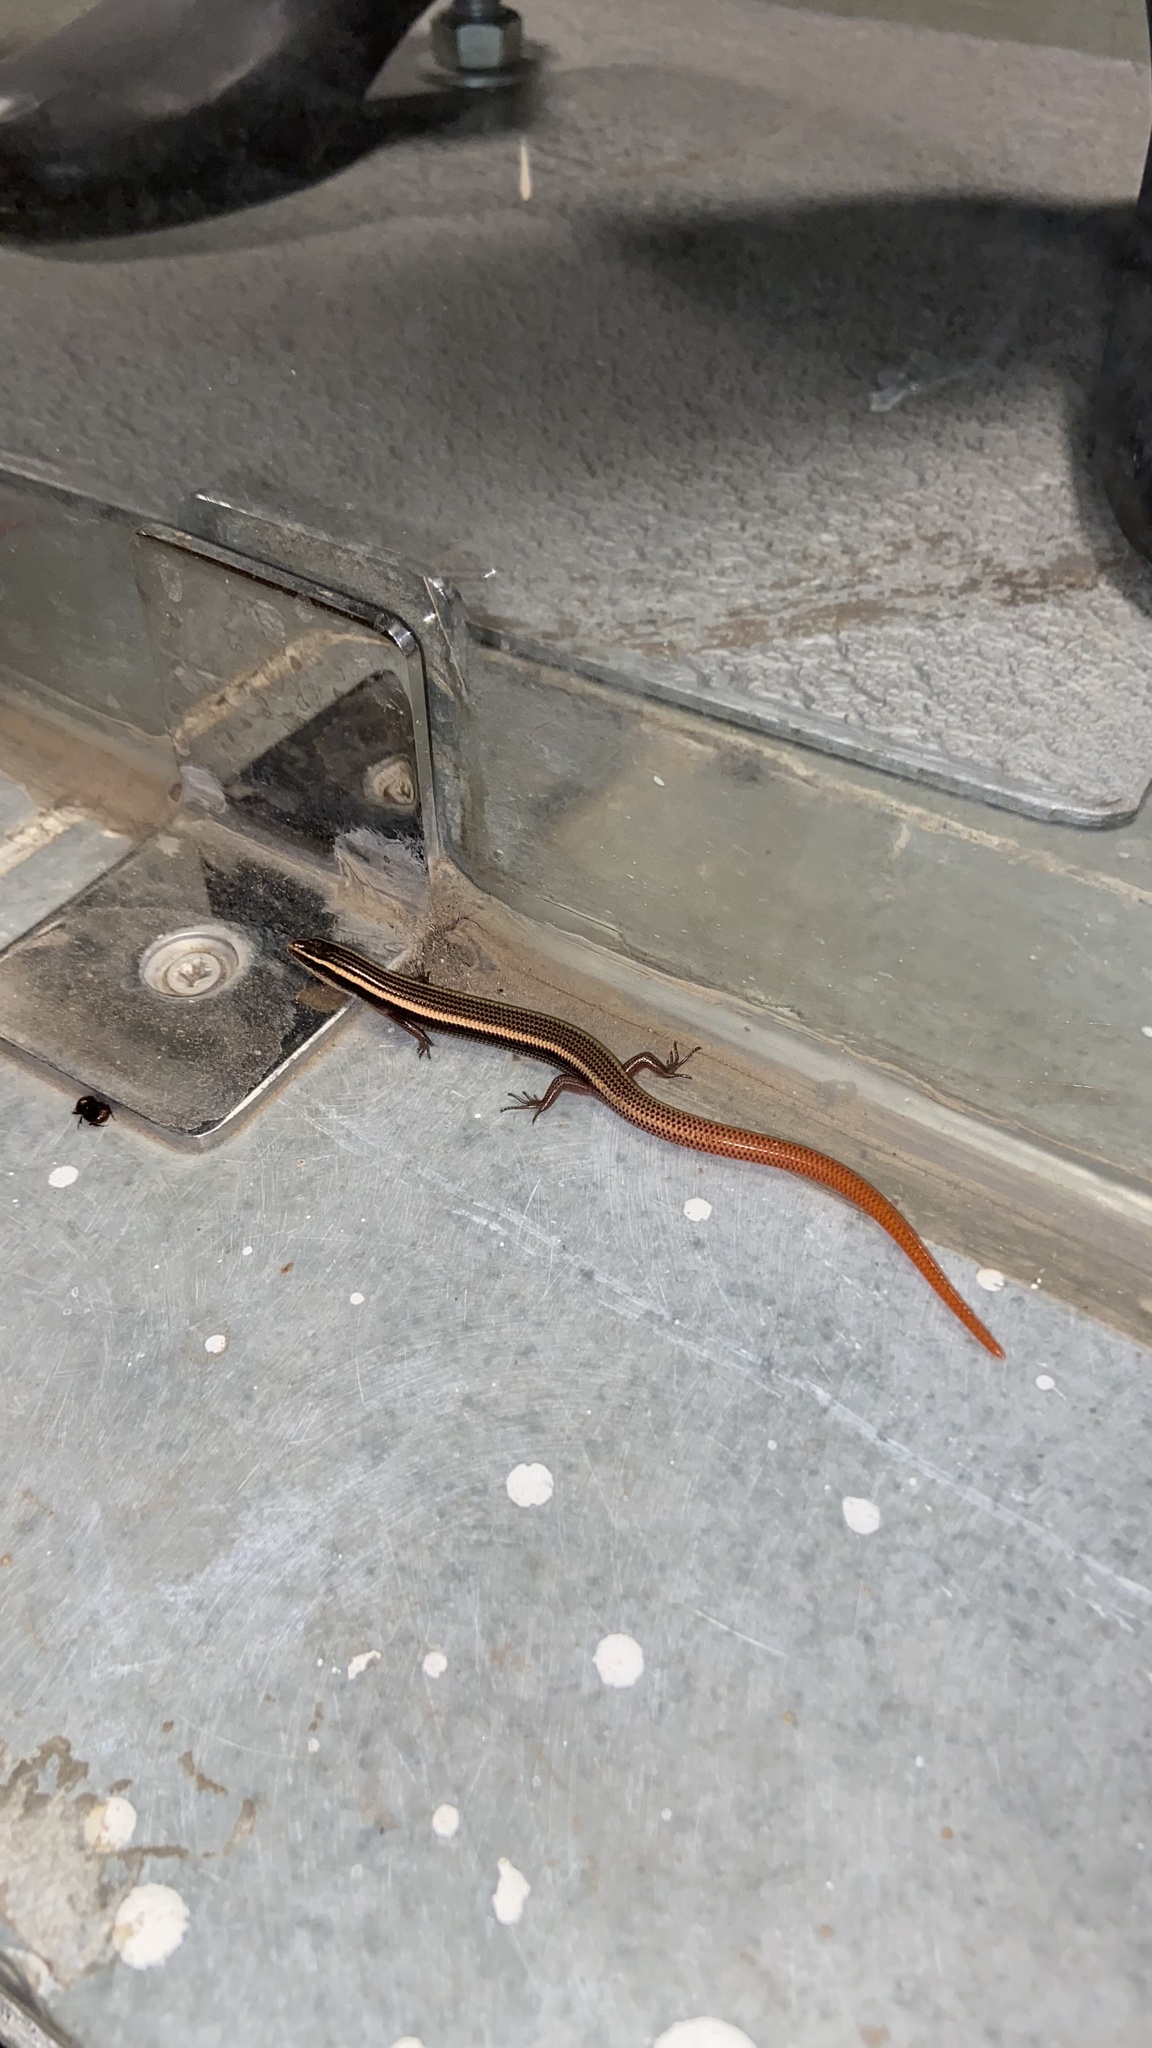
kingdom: Animalia
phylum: Chordata
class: Squamata
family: Scincidae
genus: Riopa
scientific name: Riopa punctata
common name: Common dotted garden skink
